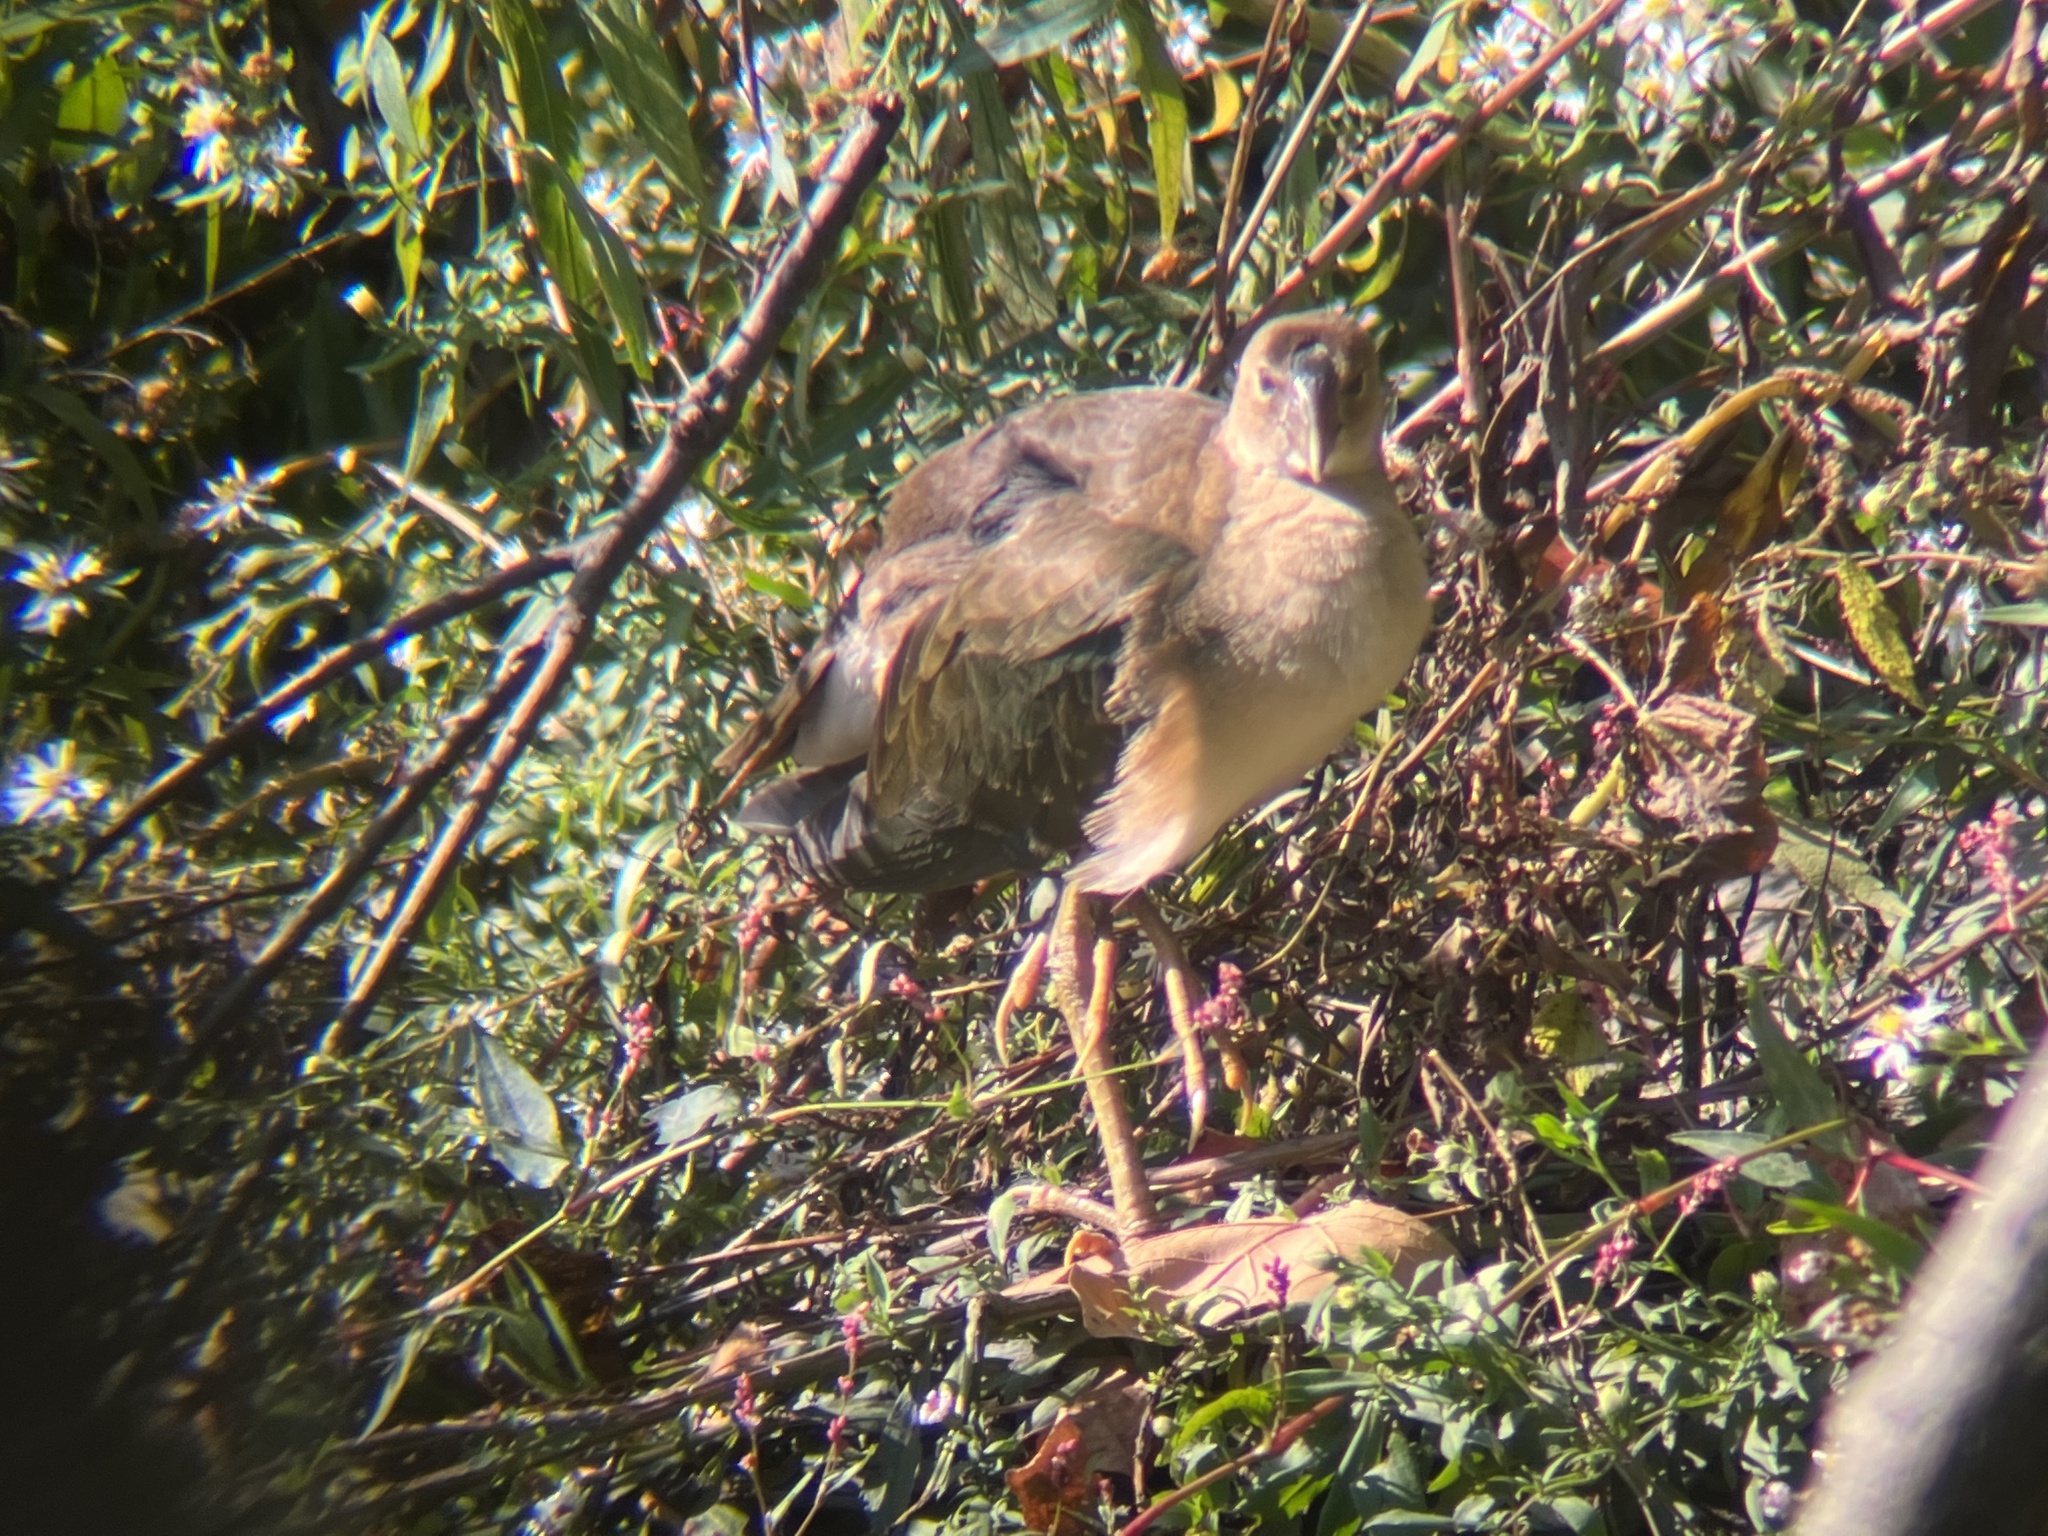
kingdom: Animalia
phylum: Chordata
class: Aves
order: Gruiformes
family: Rallidae
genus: Porphyrio
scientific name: Porphyrio martinica
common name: Purple gallinule
